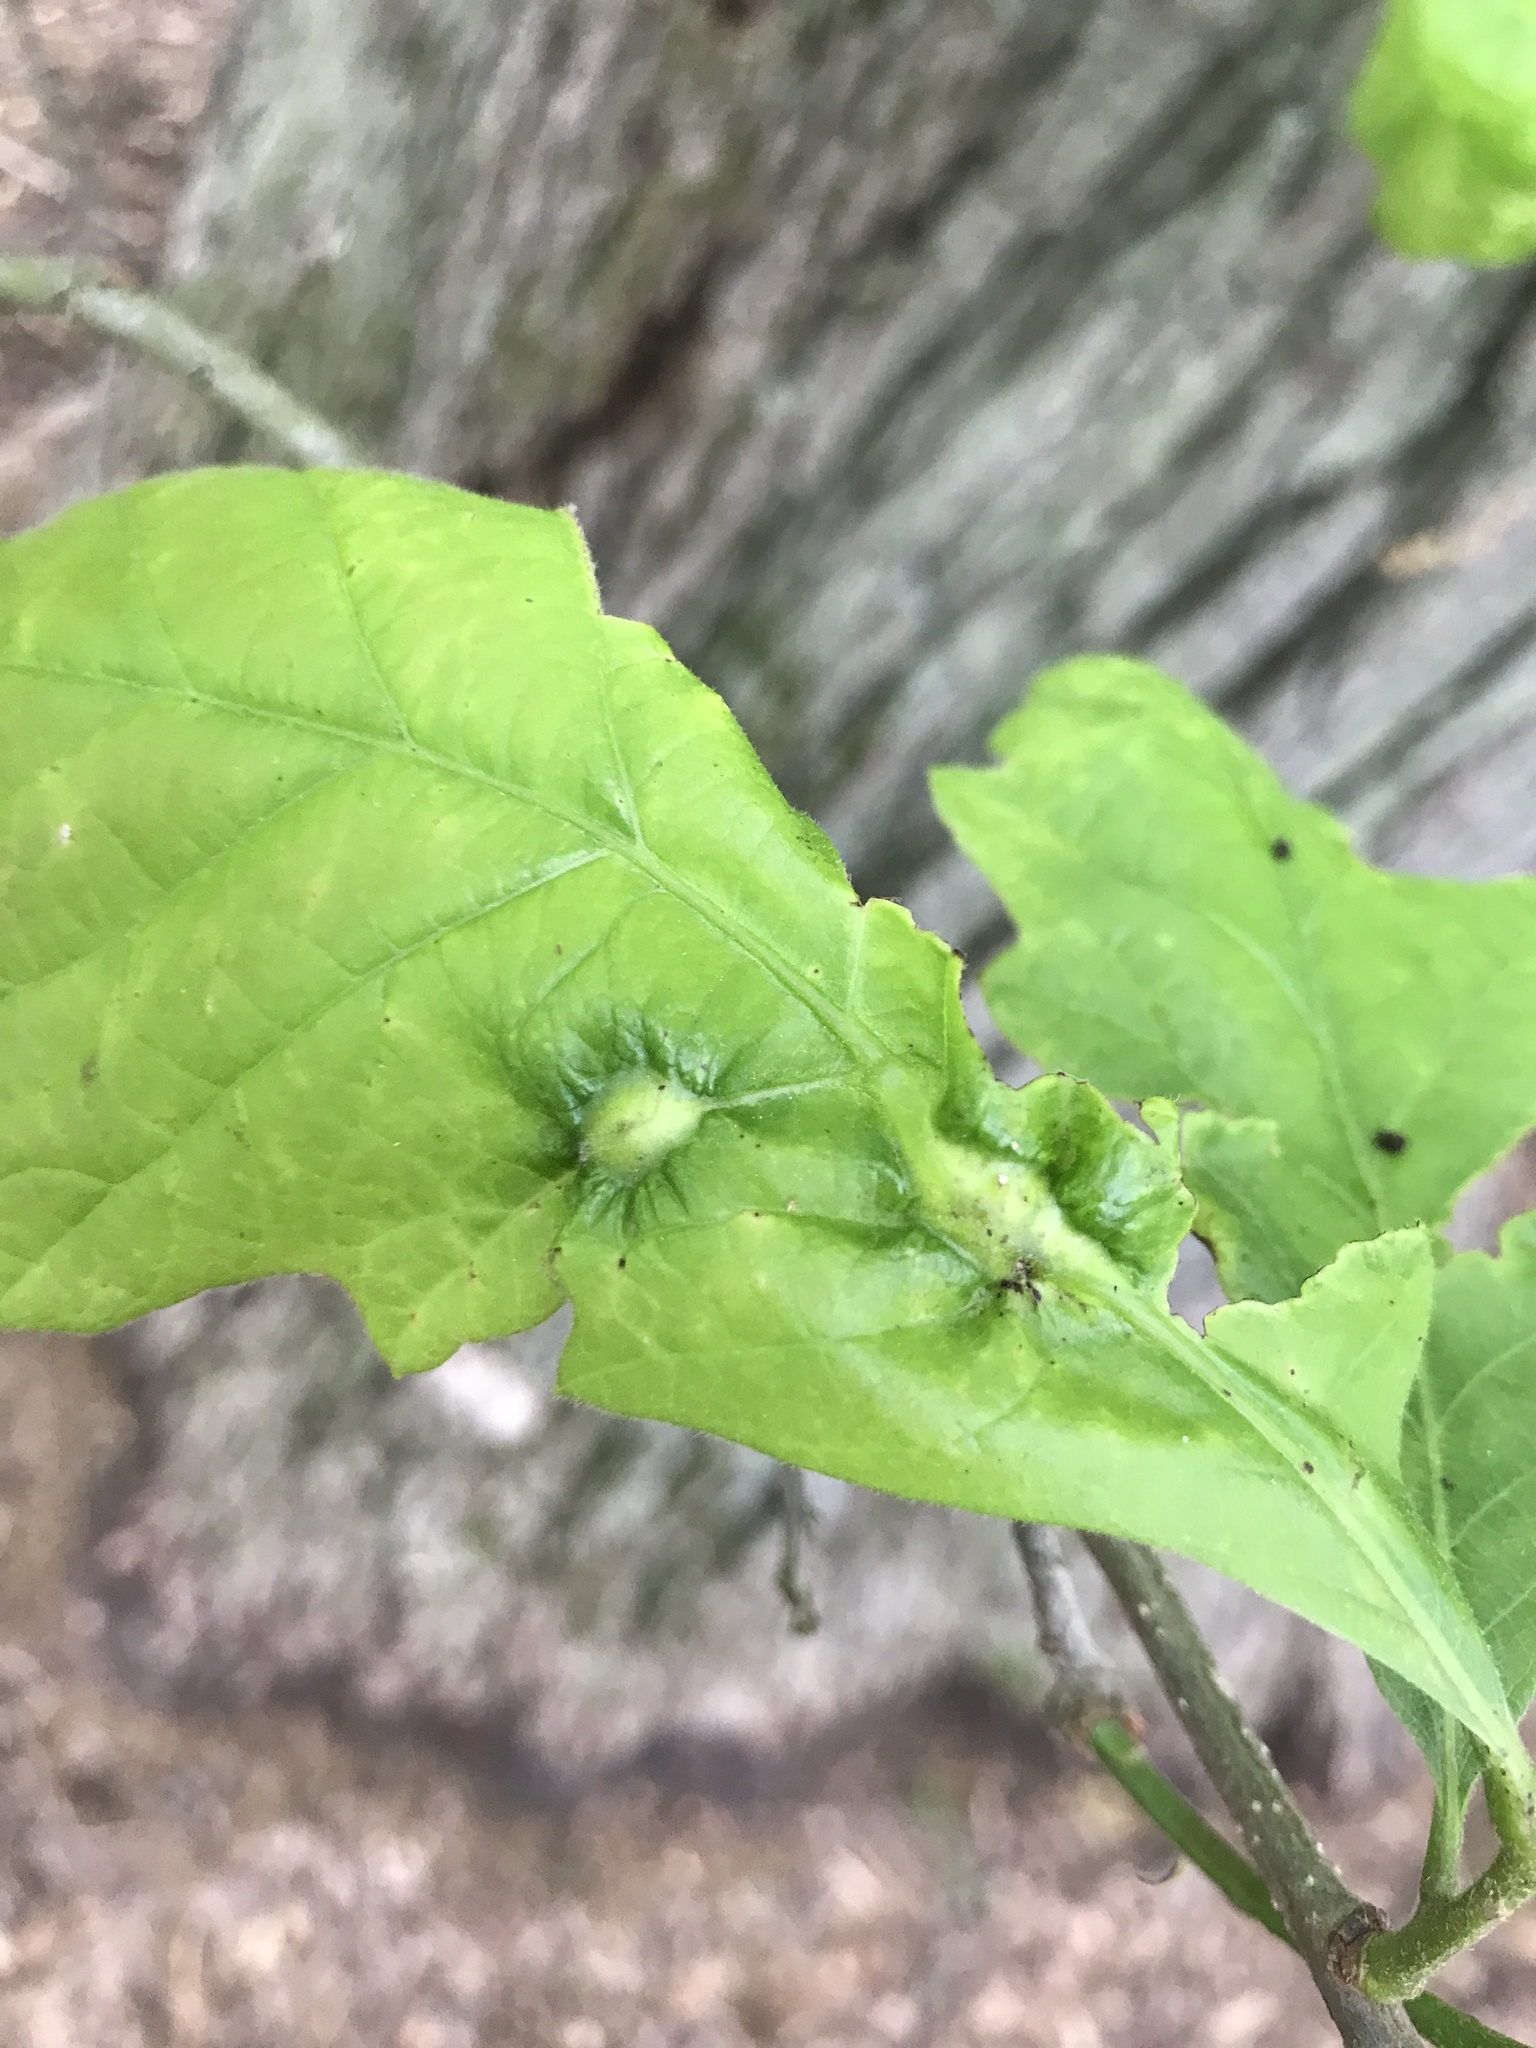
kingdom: Animalia
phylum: Arthropoda
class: Insecta
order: Hymenoptera
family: Cynipidae
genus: Bassettia
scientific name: Bassettia flavipes
